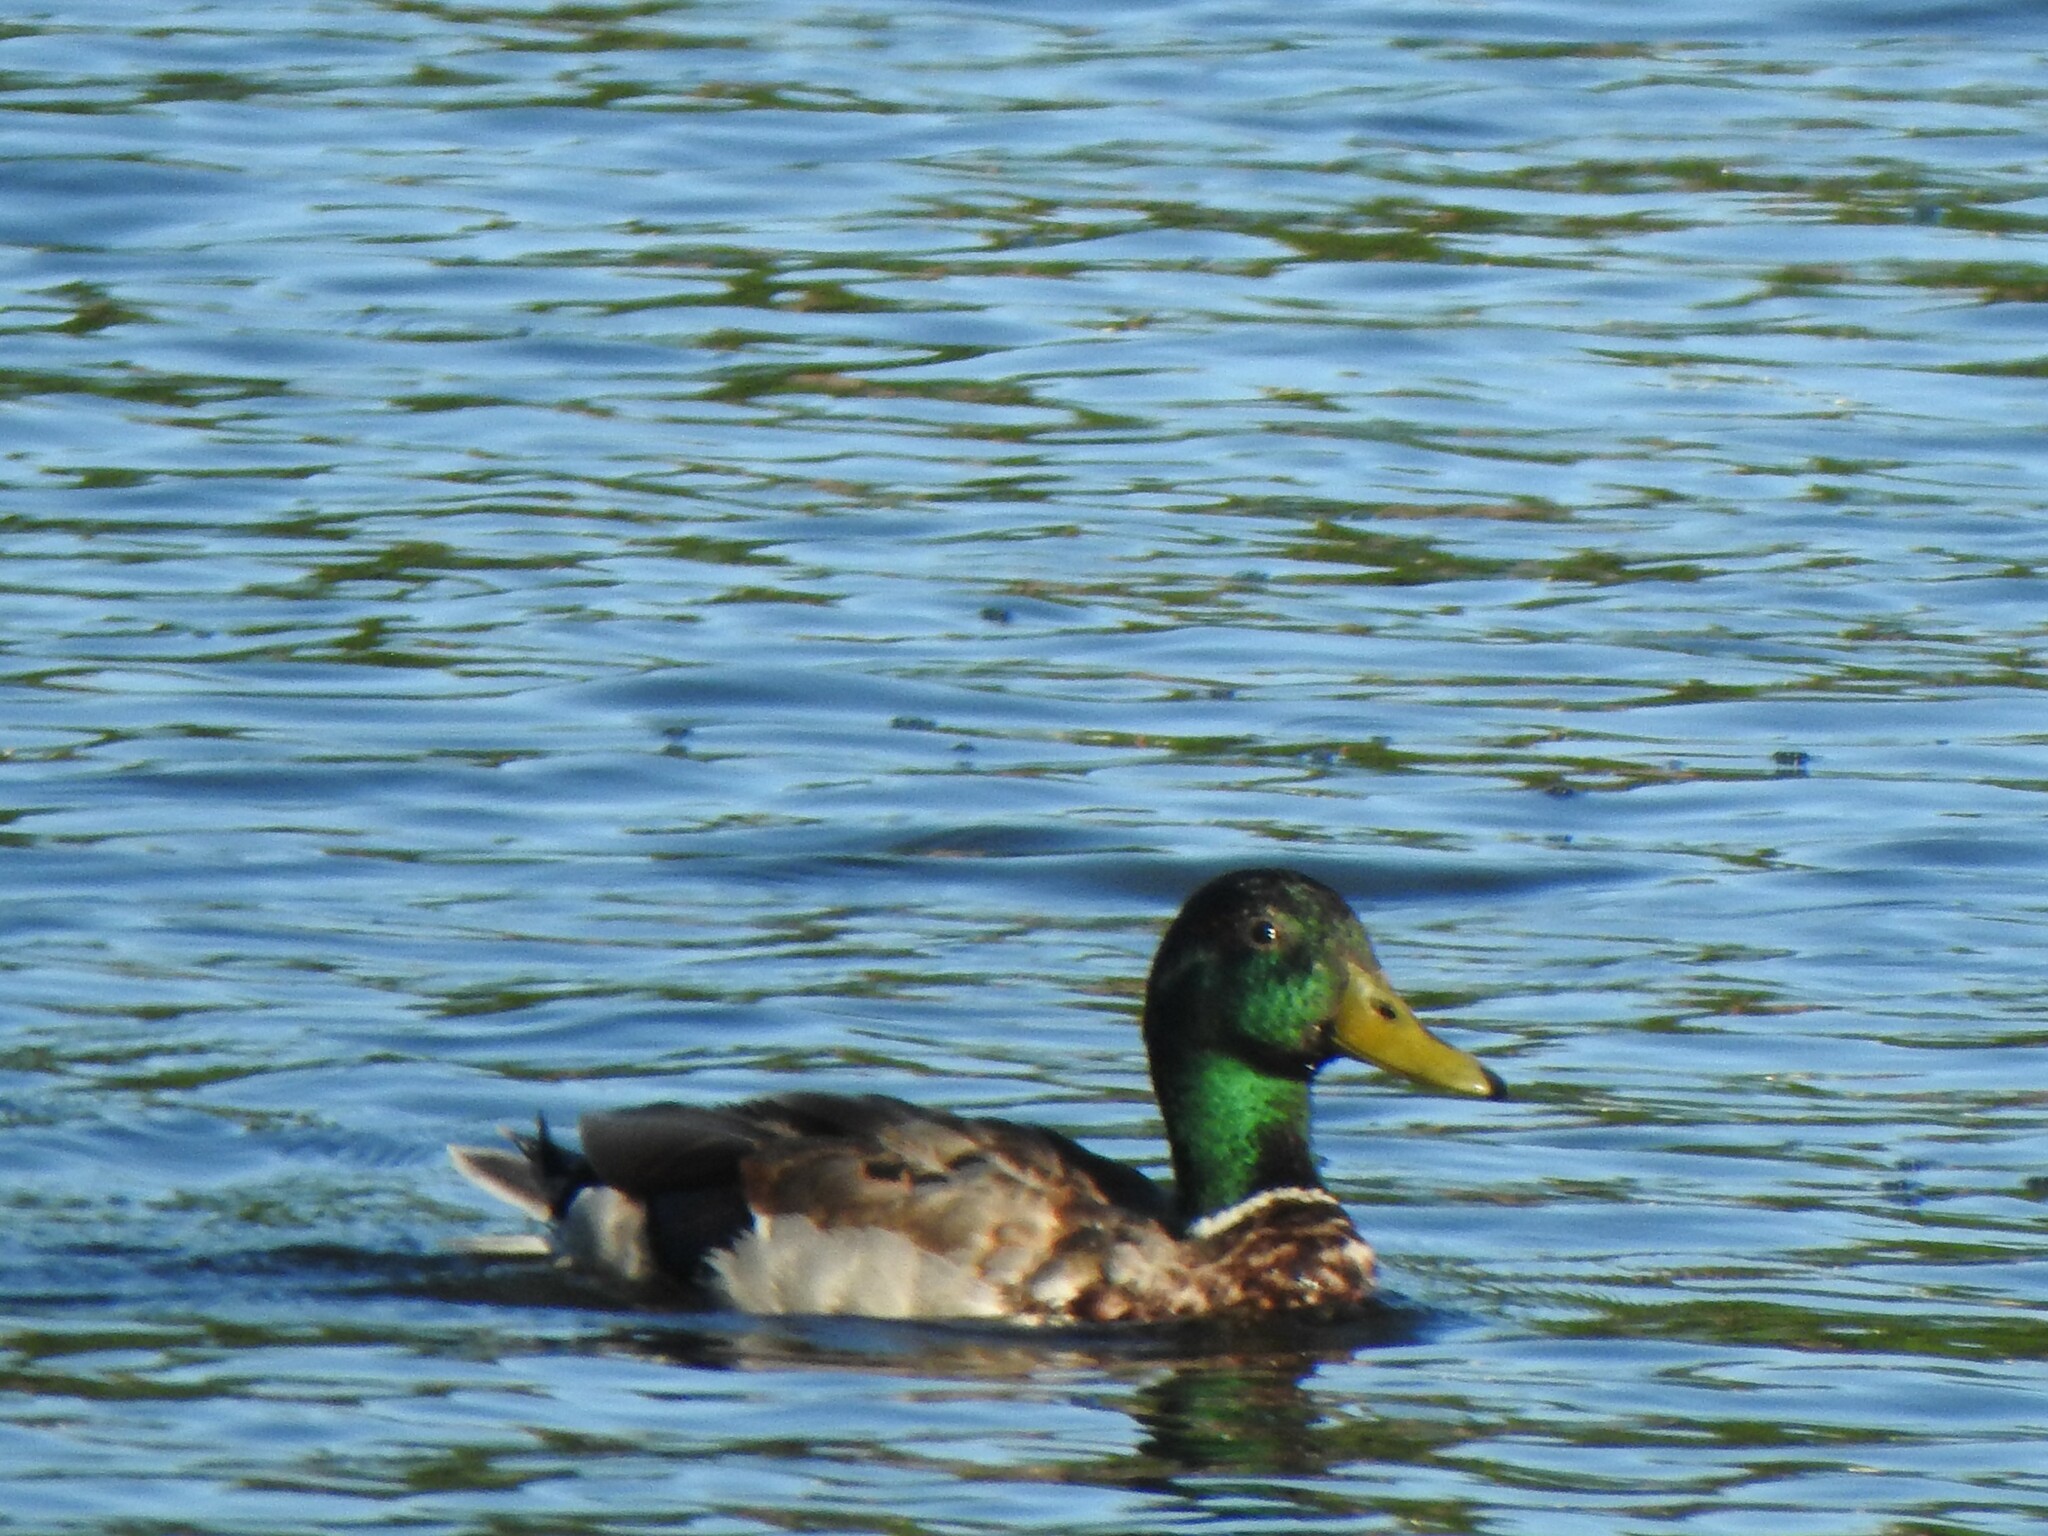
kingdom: Animalia
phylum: Chordata
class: Aves
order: Anseriformes
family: Anatidae
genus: Anas
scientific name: Anas platyrhynchos
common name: Mallard
